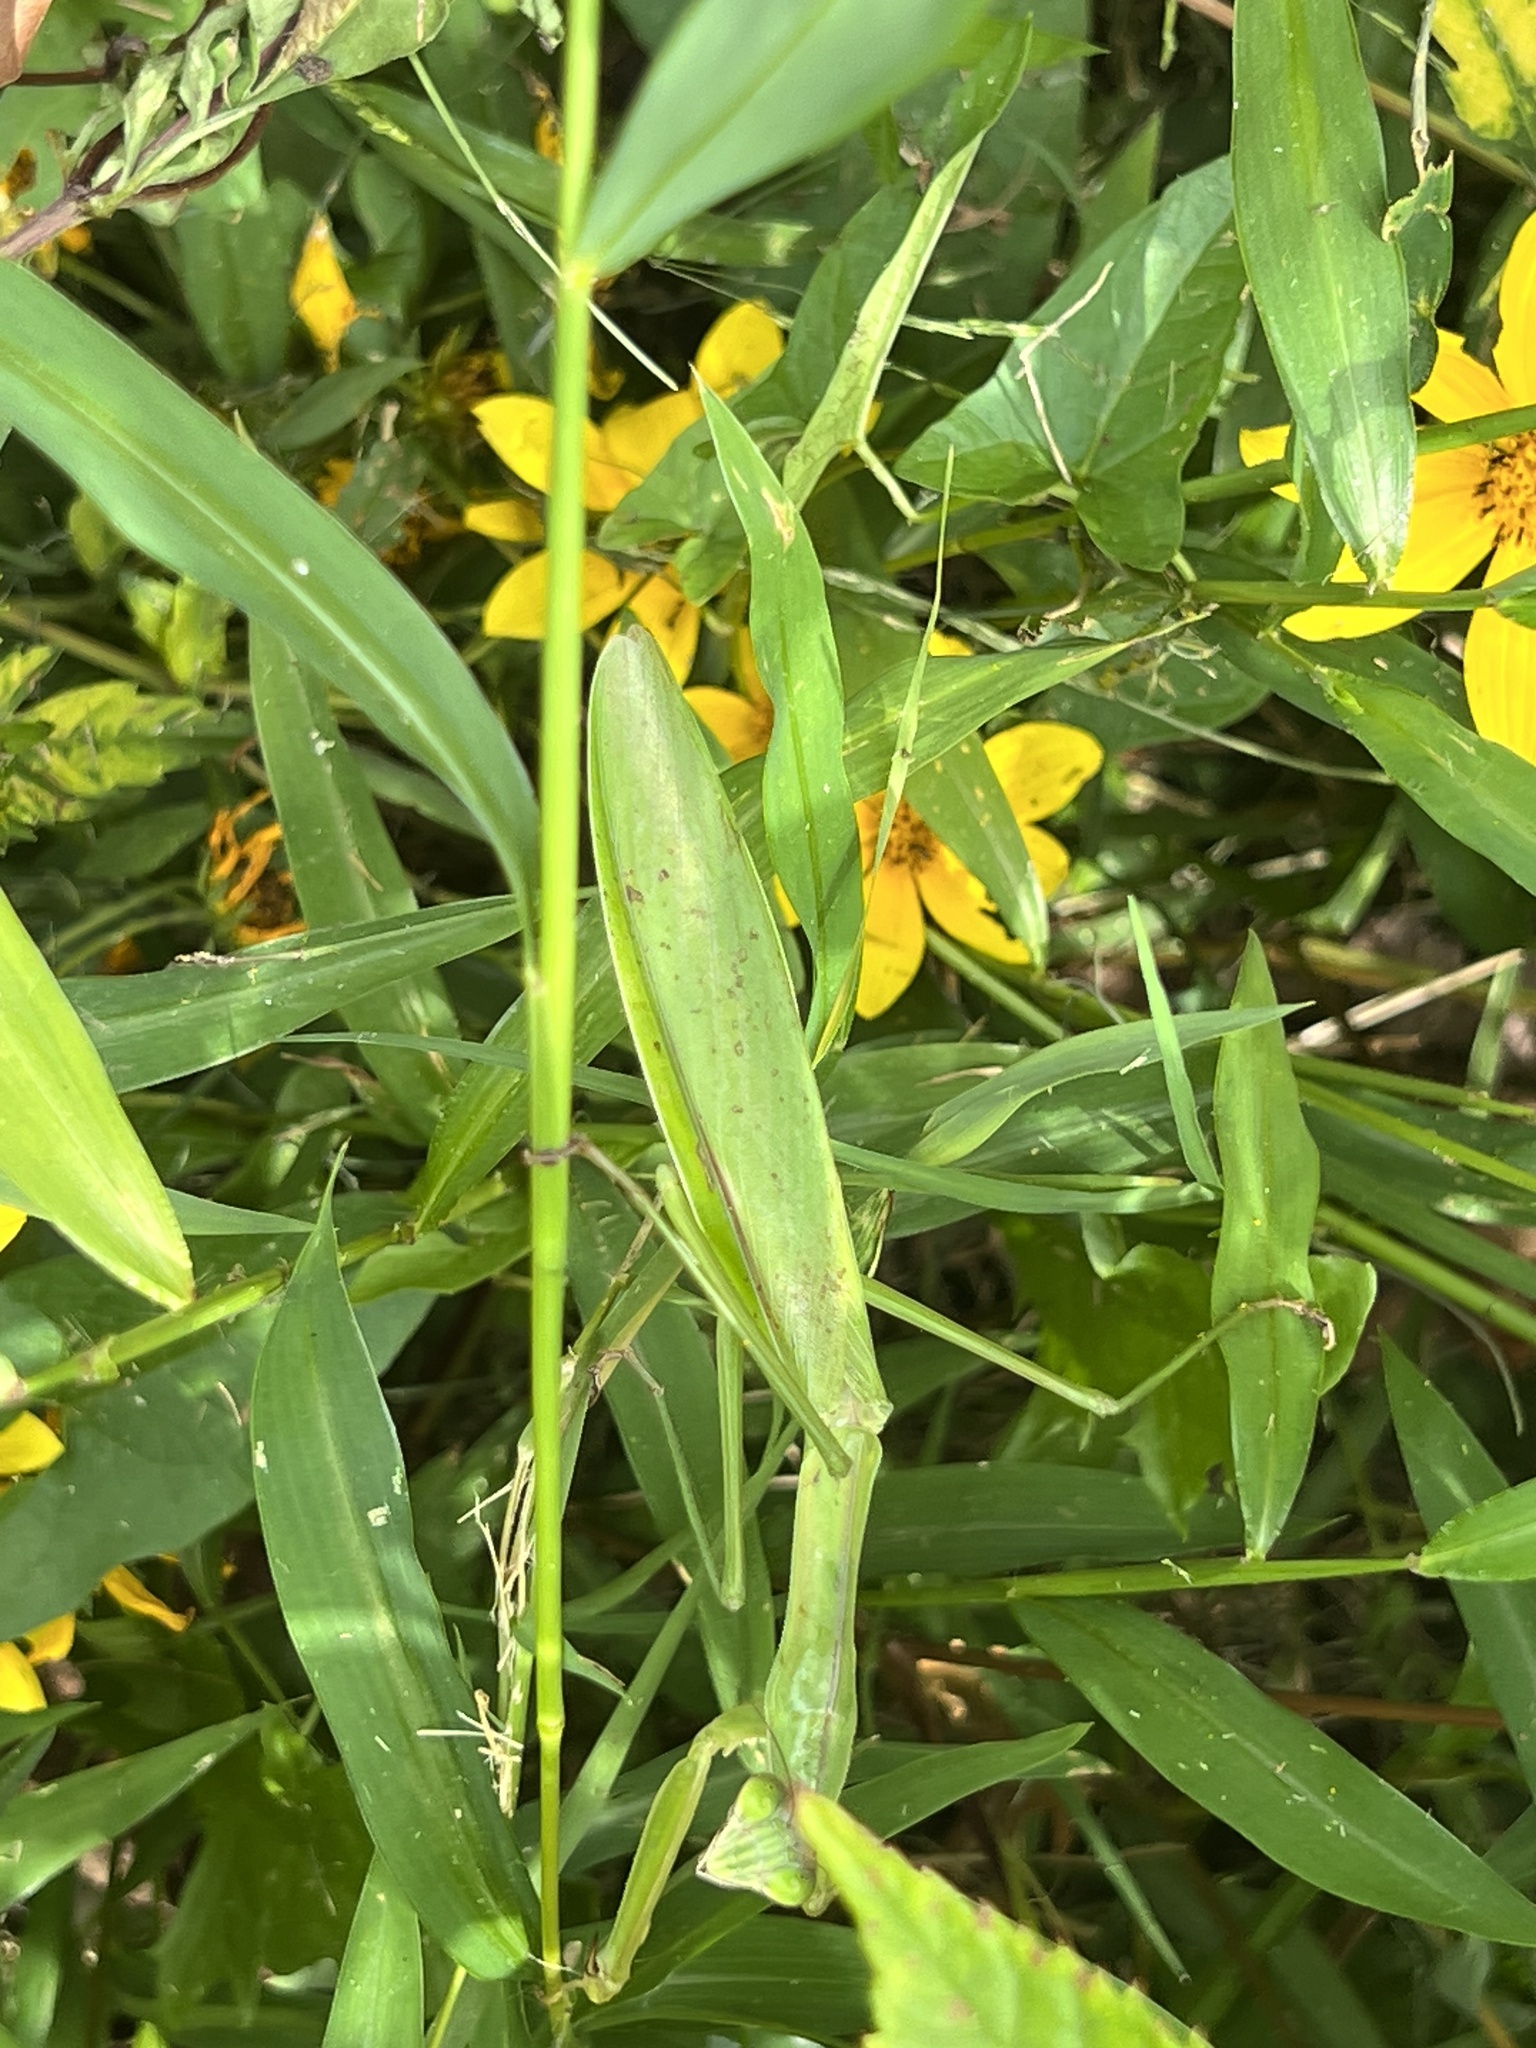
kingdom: Animalia
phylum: Arthropoda
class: Insecta
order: Mantodea
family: Mantidae
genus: Tenodera
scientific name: Tenodera sinensis
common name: Chinese mantis
